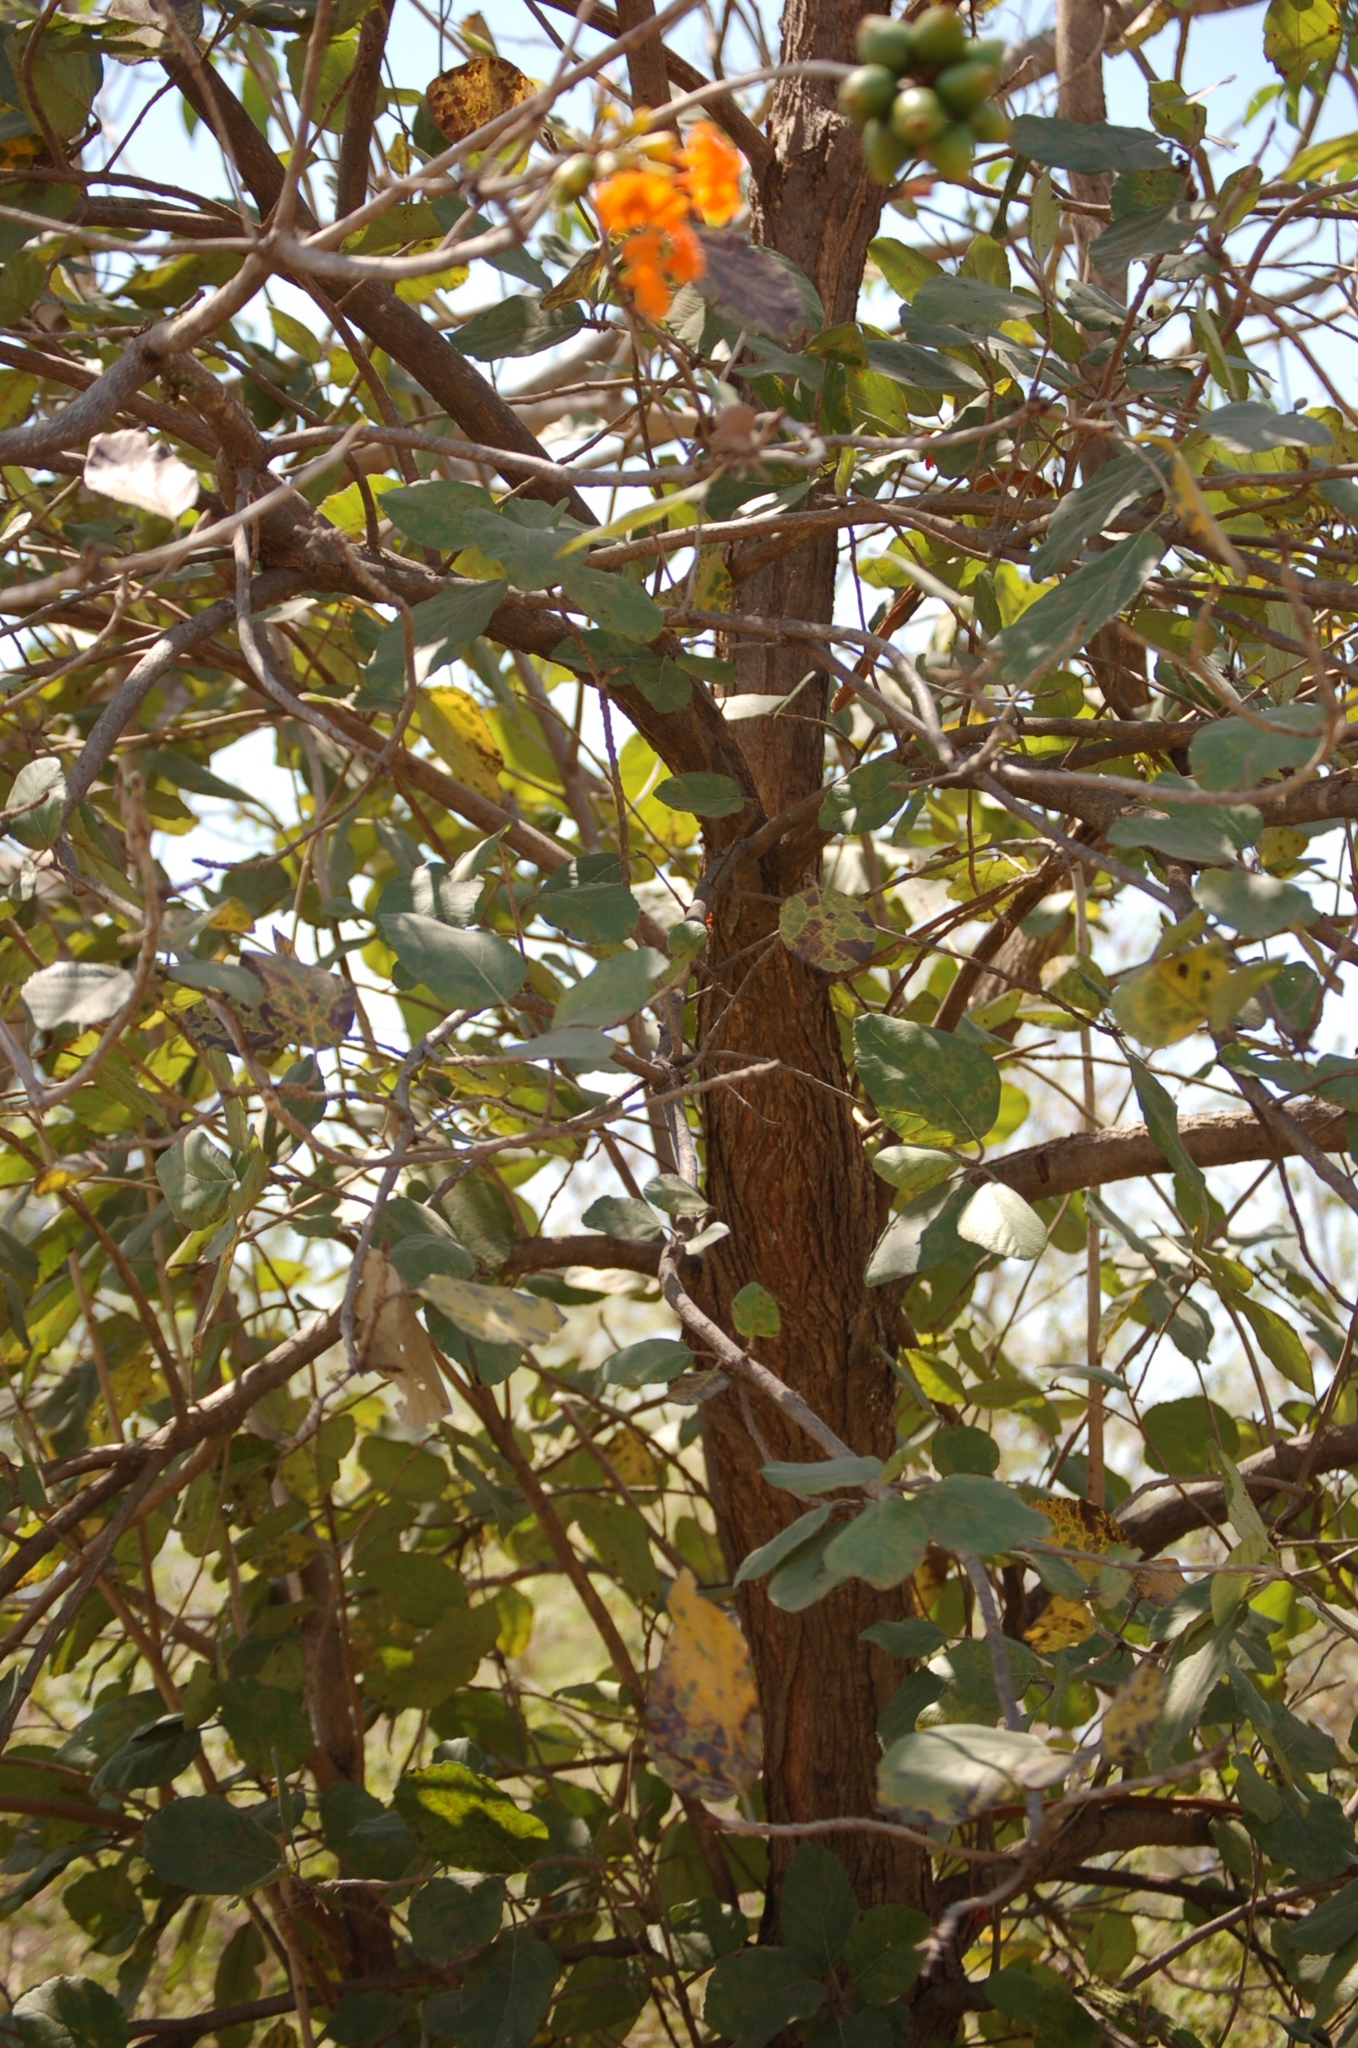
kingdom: Plantae
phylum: Tracheophyta
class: Magnoliopsida
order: Boraginales
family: Cordiaceae
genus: Cordia
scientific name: Cordia dodecandra
